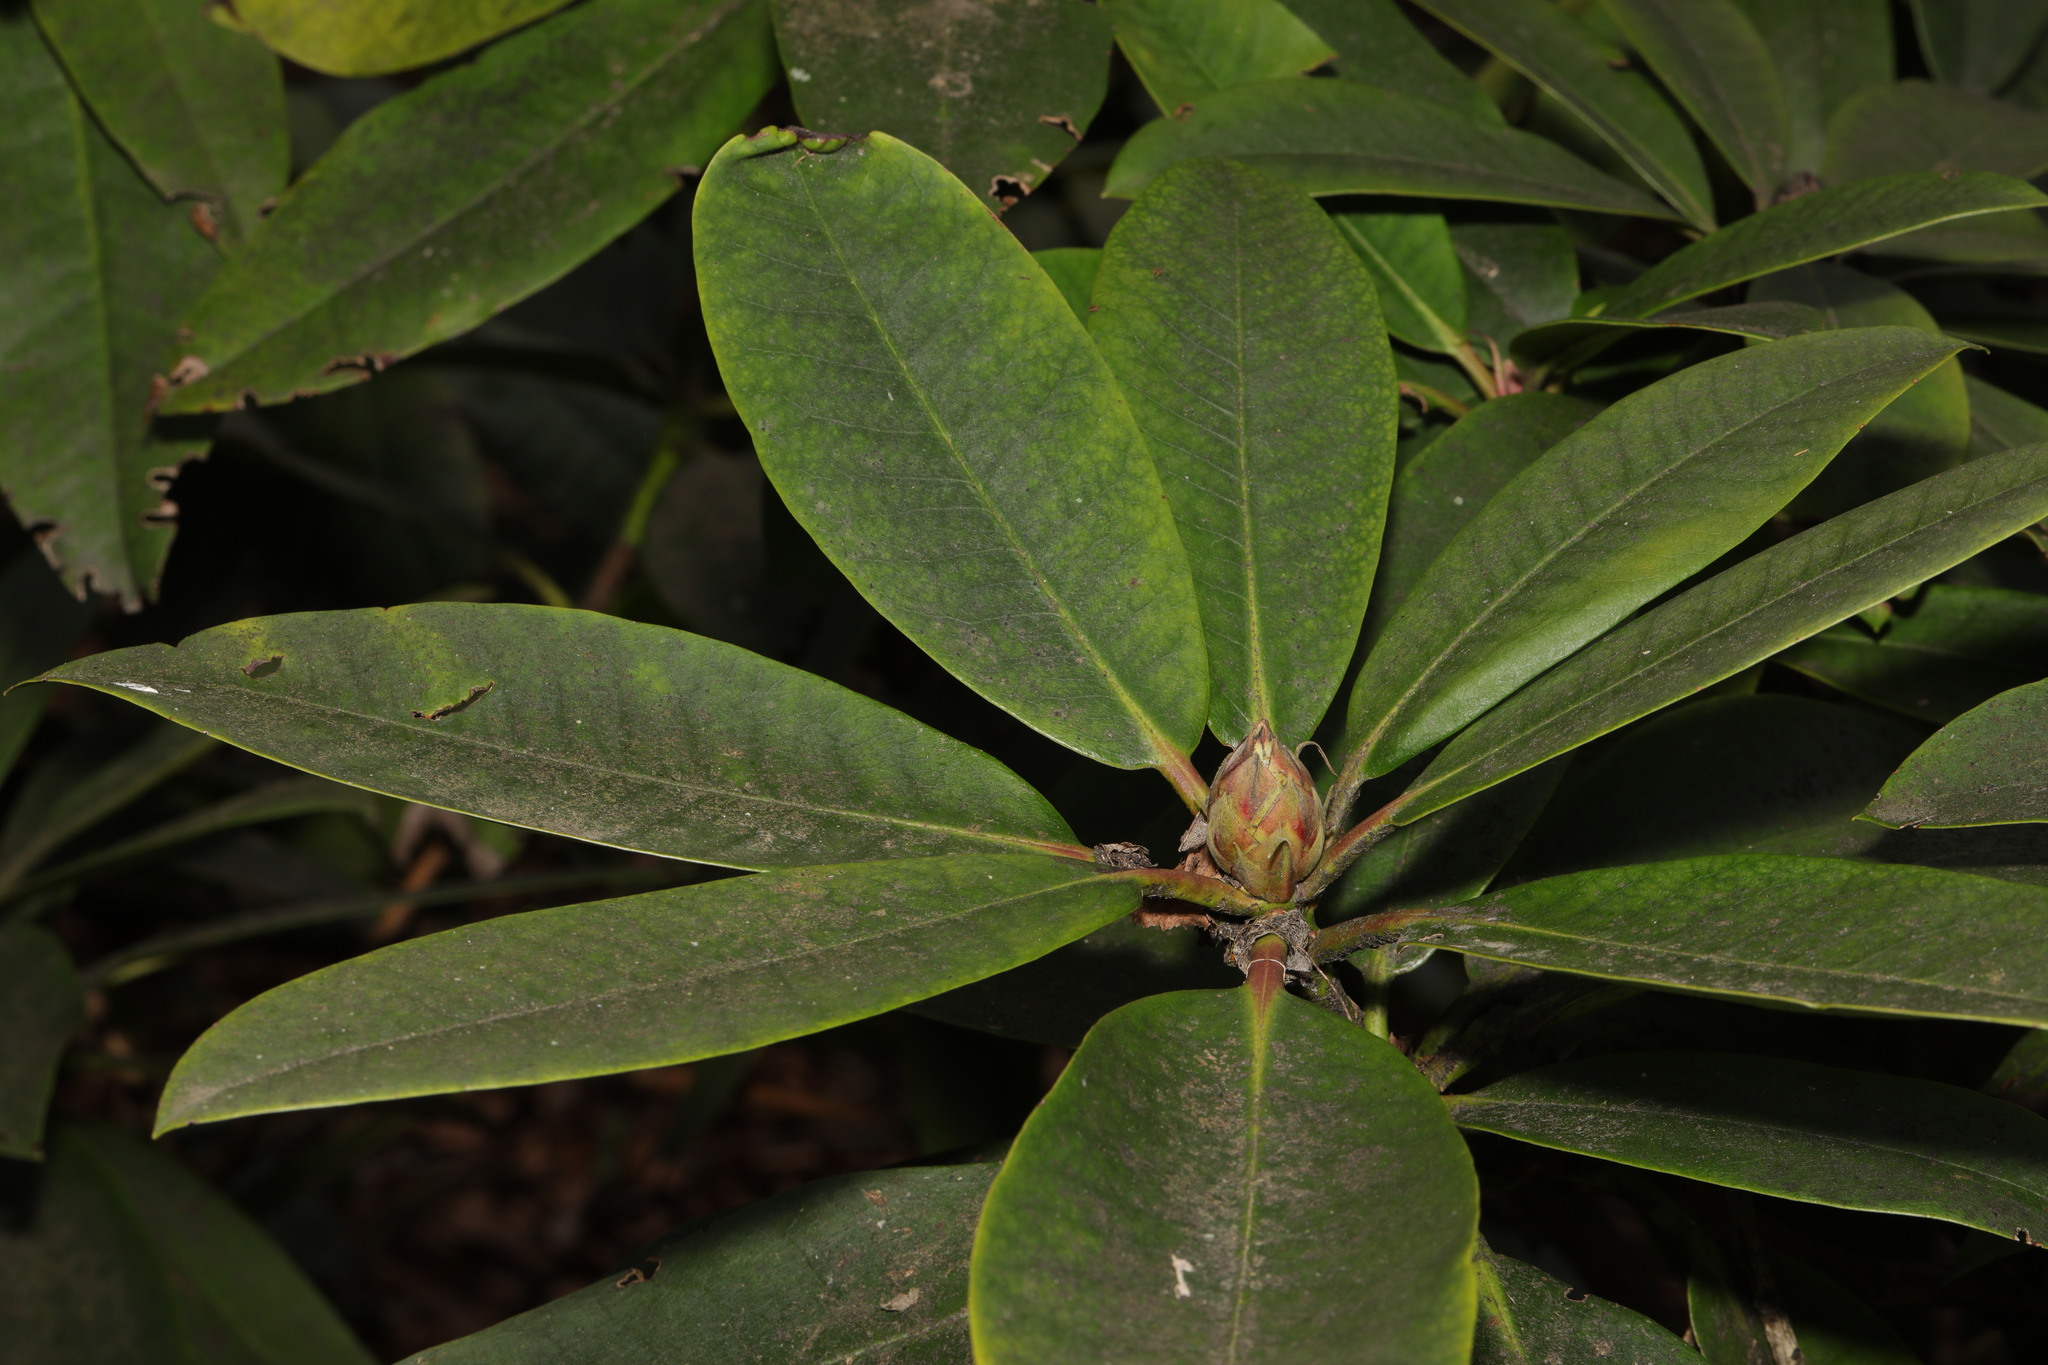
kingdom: Plantae
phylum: Tracheophyta
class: Magnoliopsida
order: Ericales
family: Ericaceae
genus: Rhododendron
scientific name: Rhododendron ponticum
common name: Rhododendron
